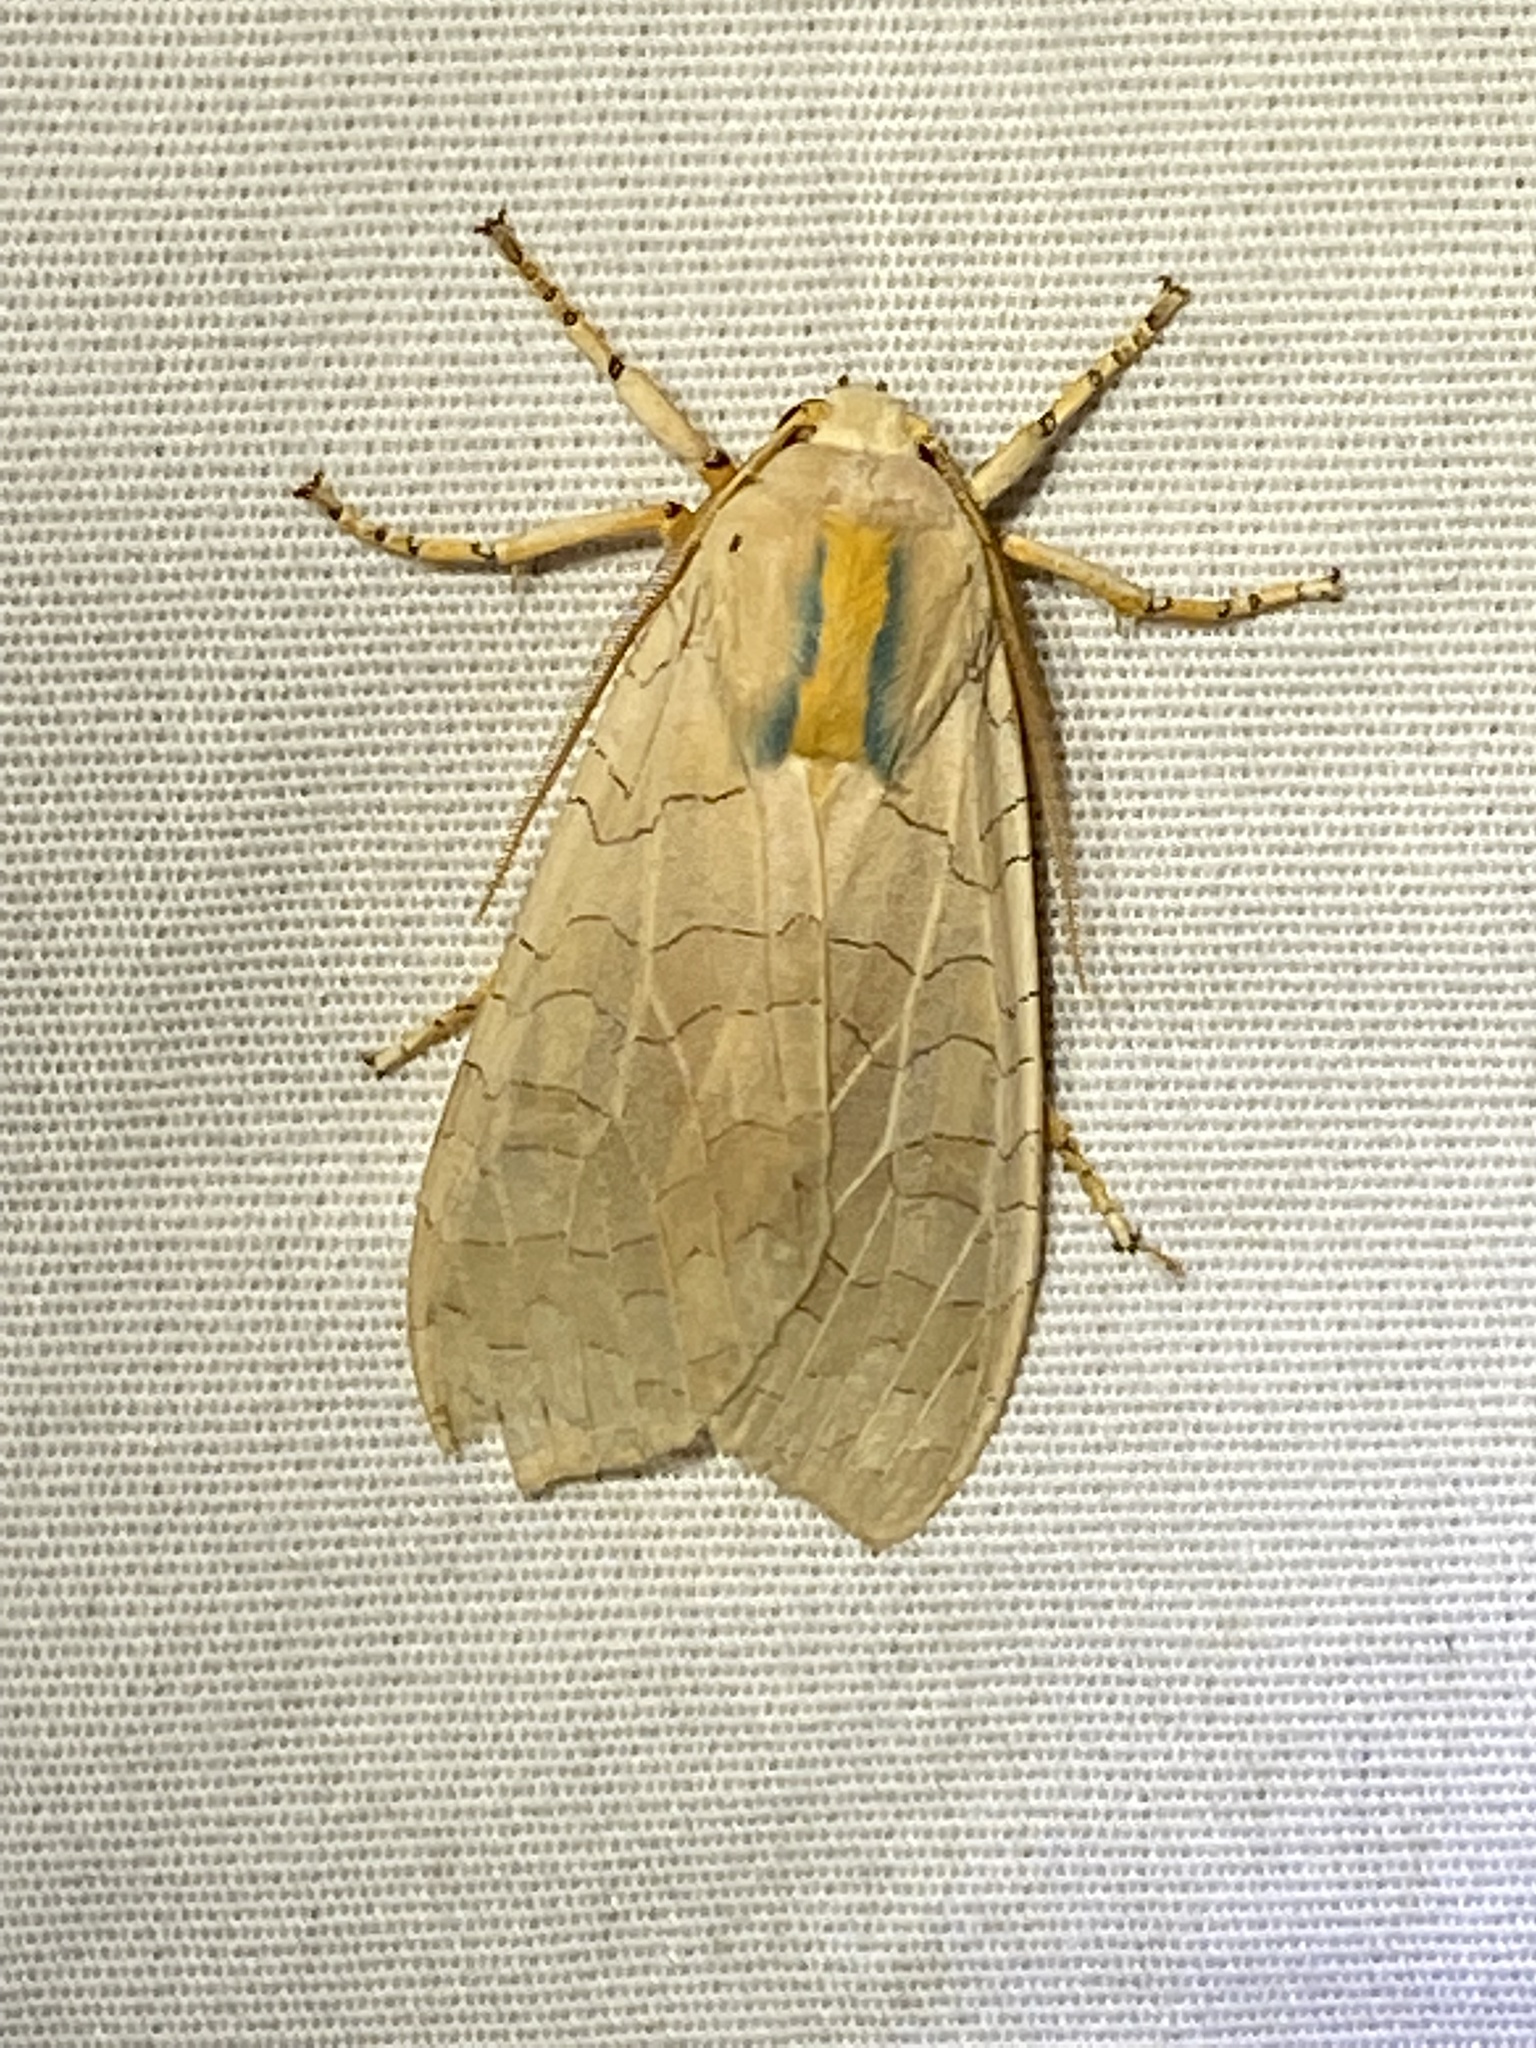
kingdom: Animalia
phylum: Arthropoda
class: Insecta
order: Lepidoptera
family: Erebidae
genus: Halysidota
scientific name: Halysidota
